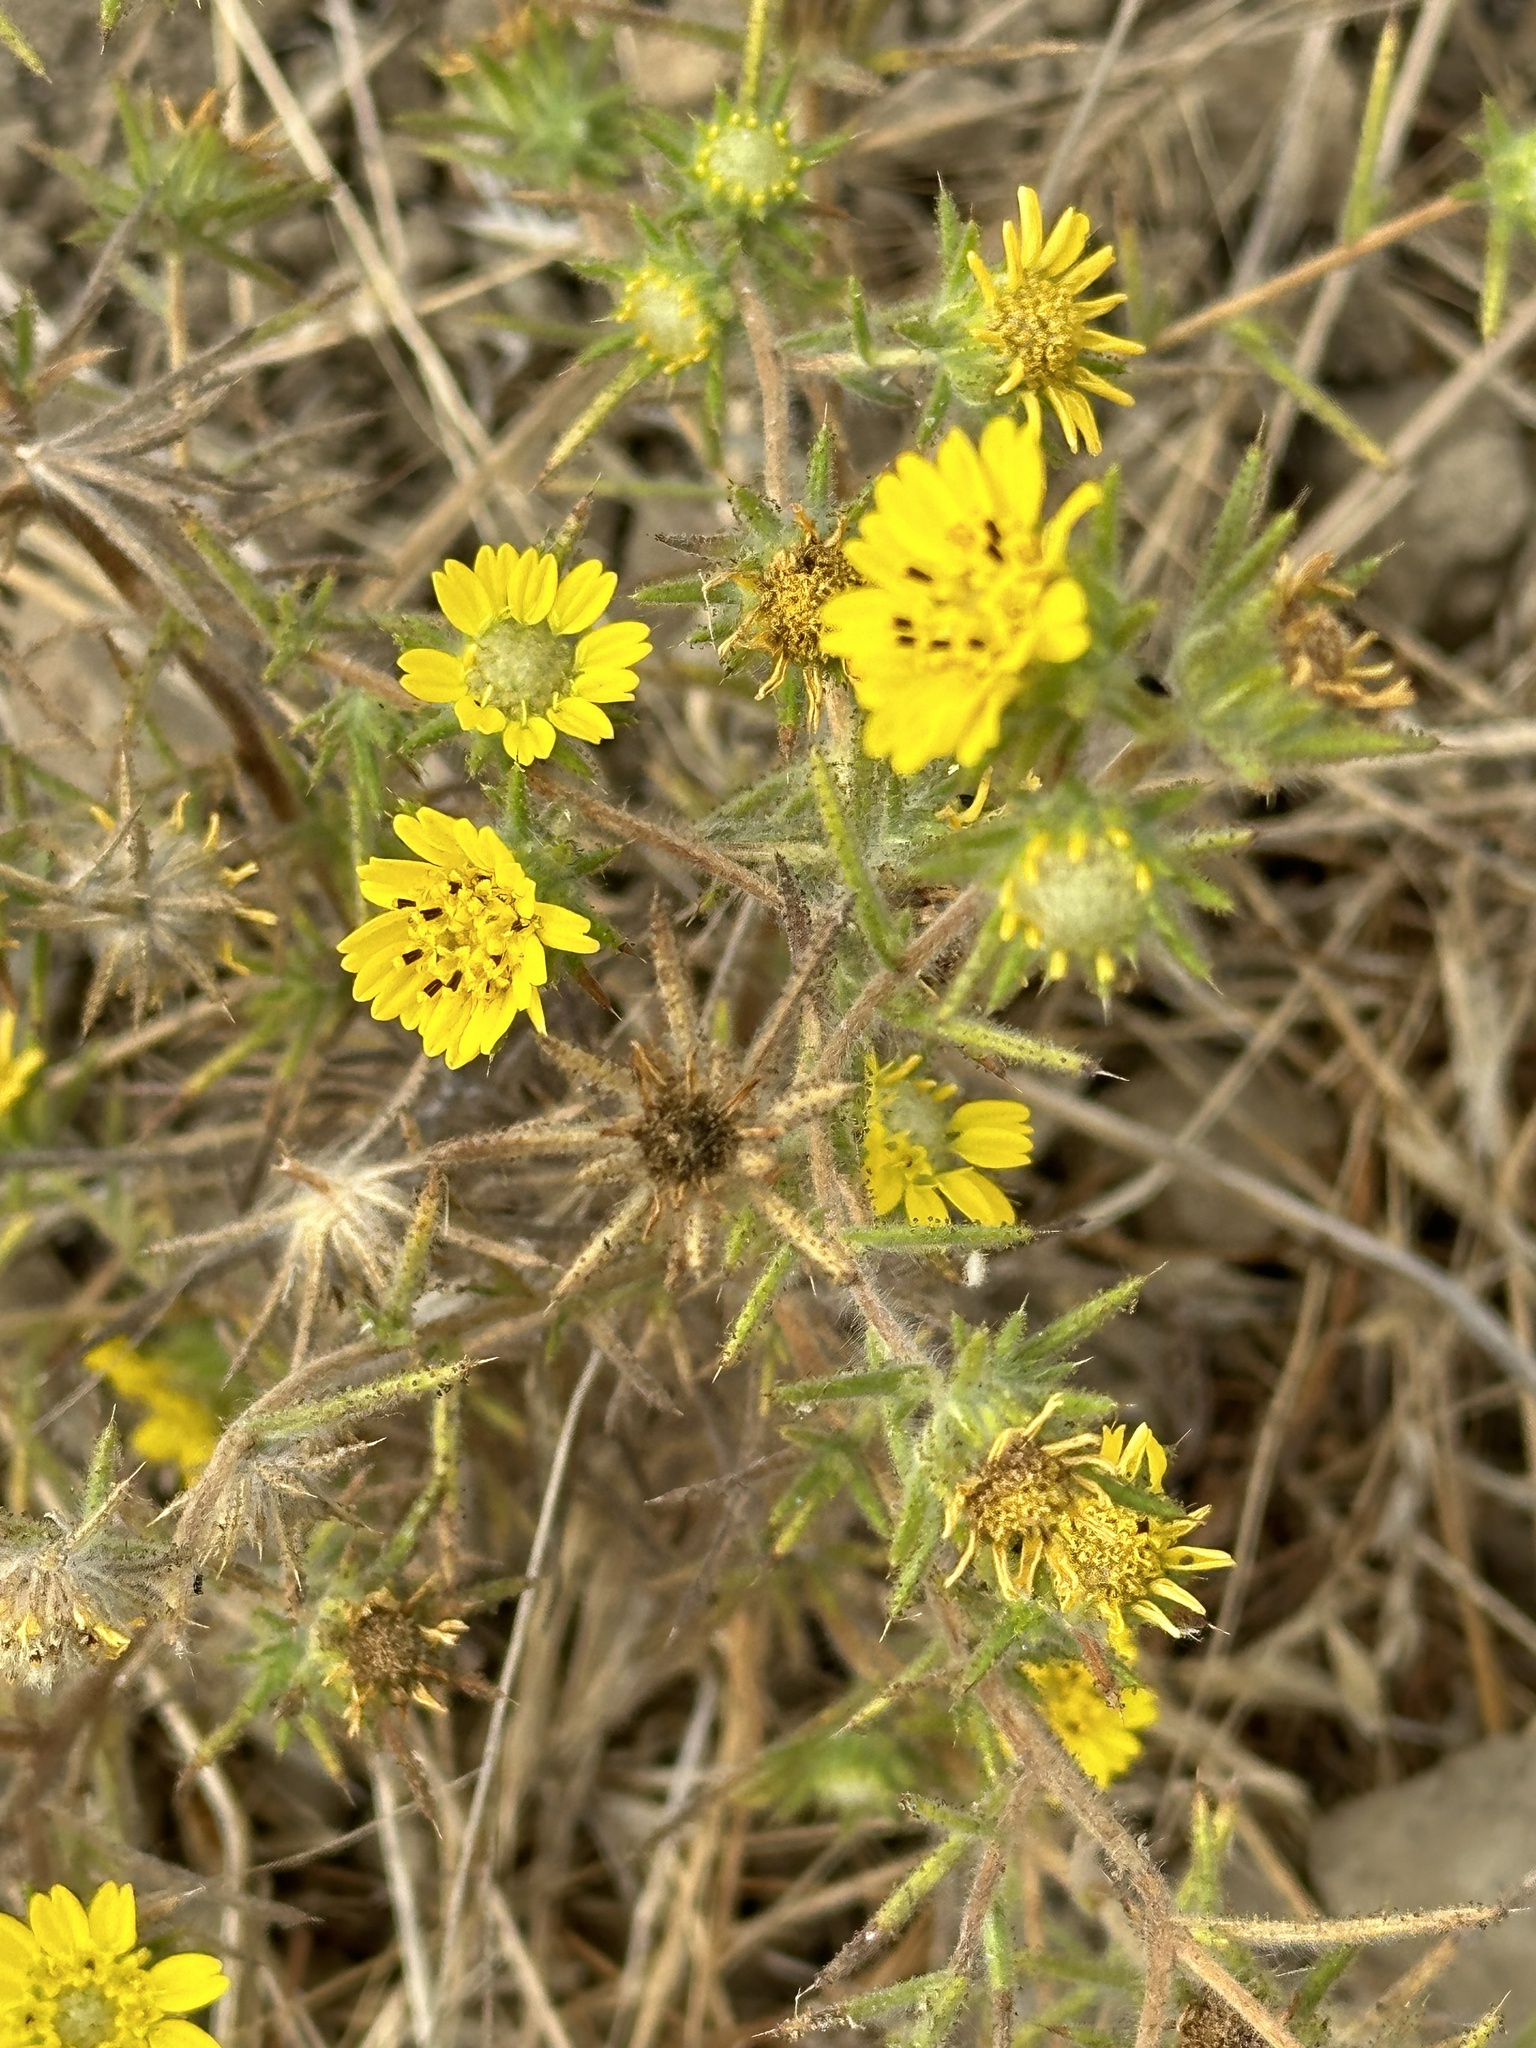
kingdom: Plantae
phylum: Tracheophyta
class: Magnoliopsida
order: Asterales
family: Asteraceae
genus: Centromadia
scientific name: Centromadia fitchii
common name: Fitch's spikeweed
